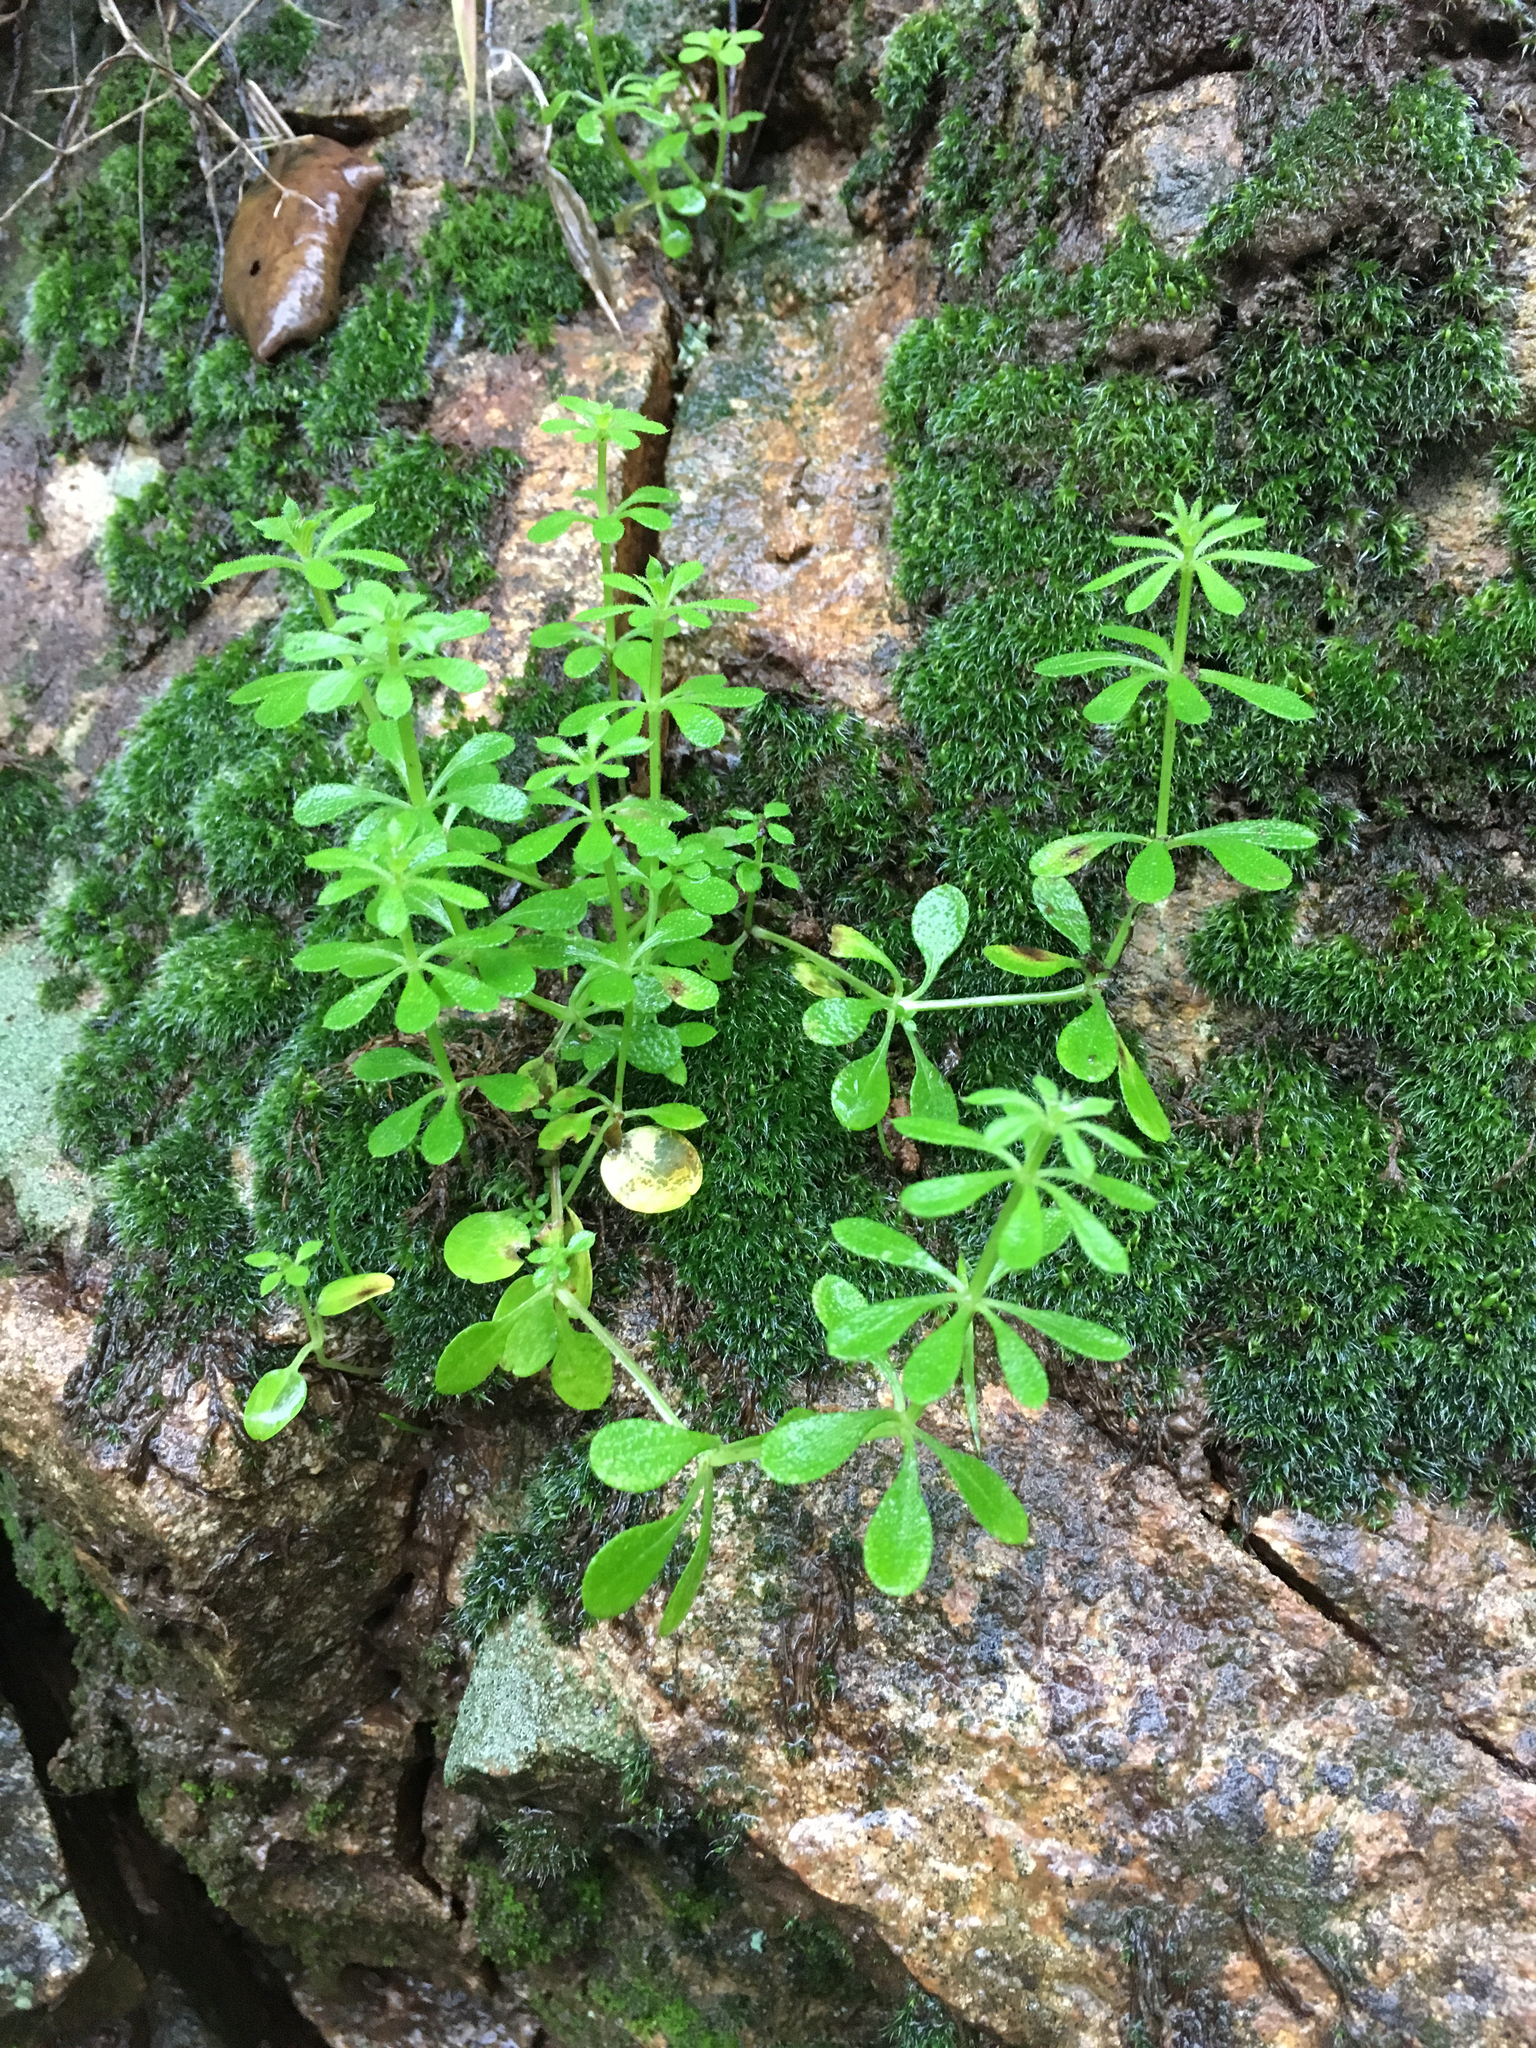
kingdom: Plantae
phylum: Tracheophyta
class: Magnoliopsida
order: Gentianales
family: Rubiaceae
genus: Galium
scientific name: Galium aparine
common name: Cleavers
